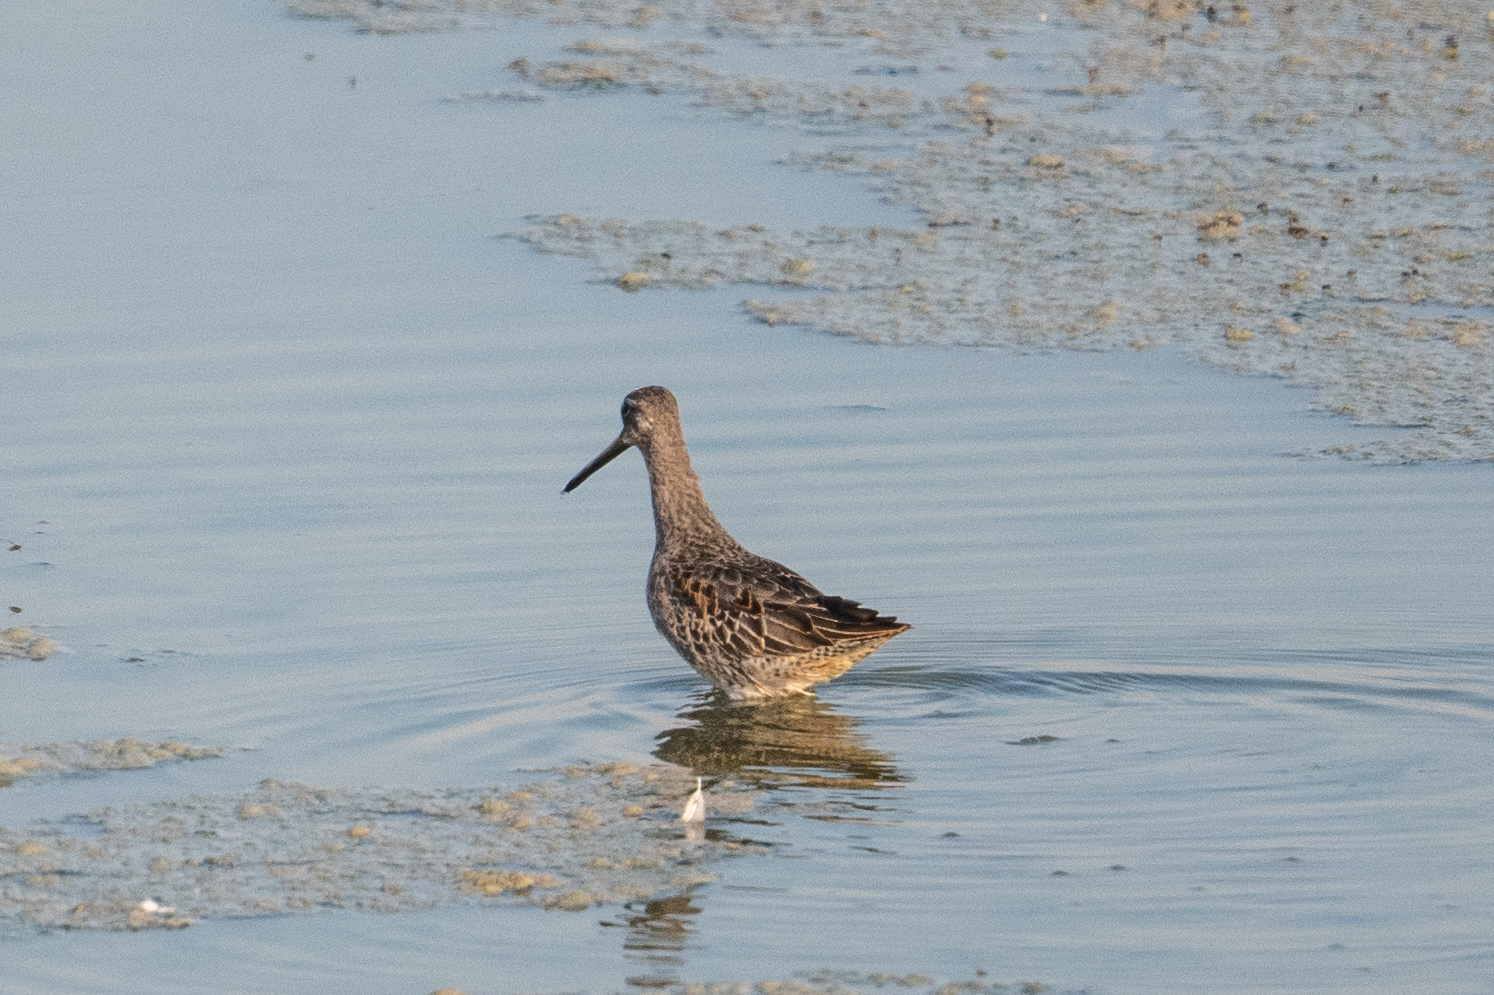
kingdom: Animalia
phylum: Chordata
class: Aves
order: Charadriiformes
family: Scolopacidae
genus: Limnodromus
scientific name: Limnodromus scolopaceus
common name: Long-billed dowitcher
